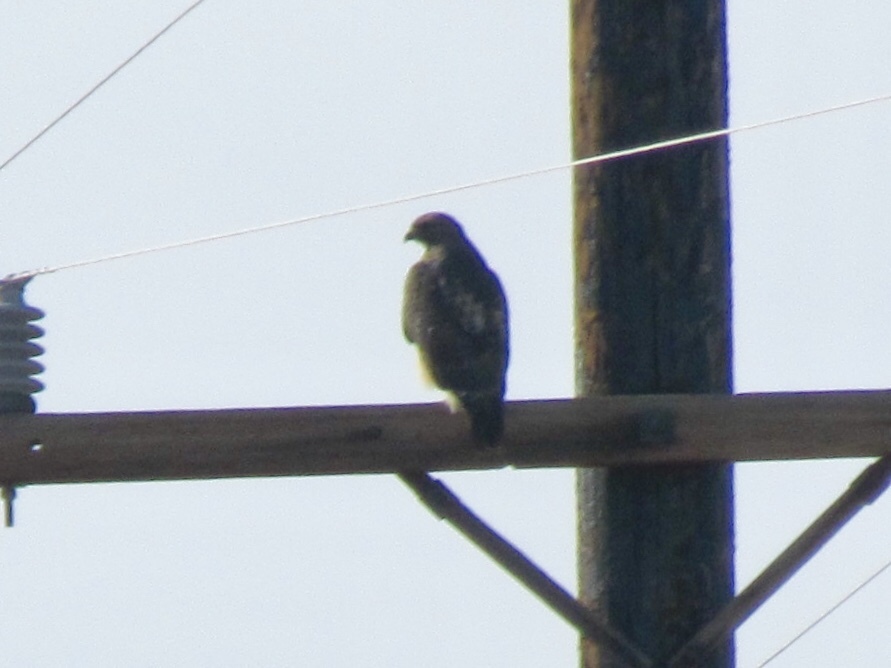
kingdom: Animalia
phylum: Chordata
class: Aves
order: Accipitriformes
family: Accipitridae
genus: Buteo
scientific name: Buteo jamaicensis
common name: Red-tailed hawk
